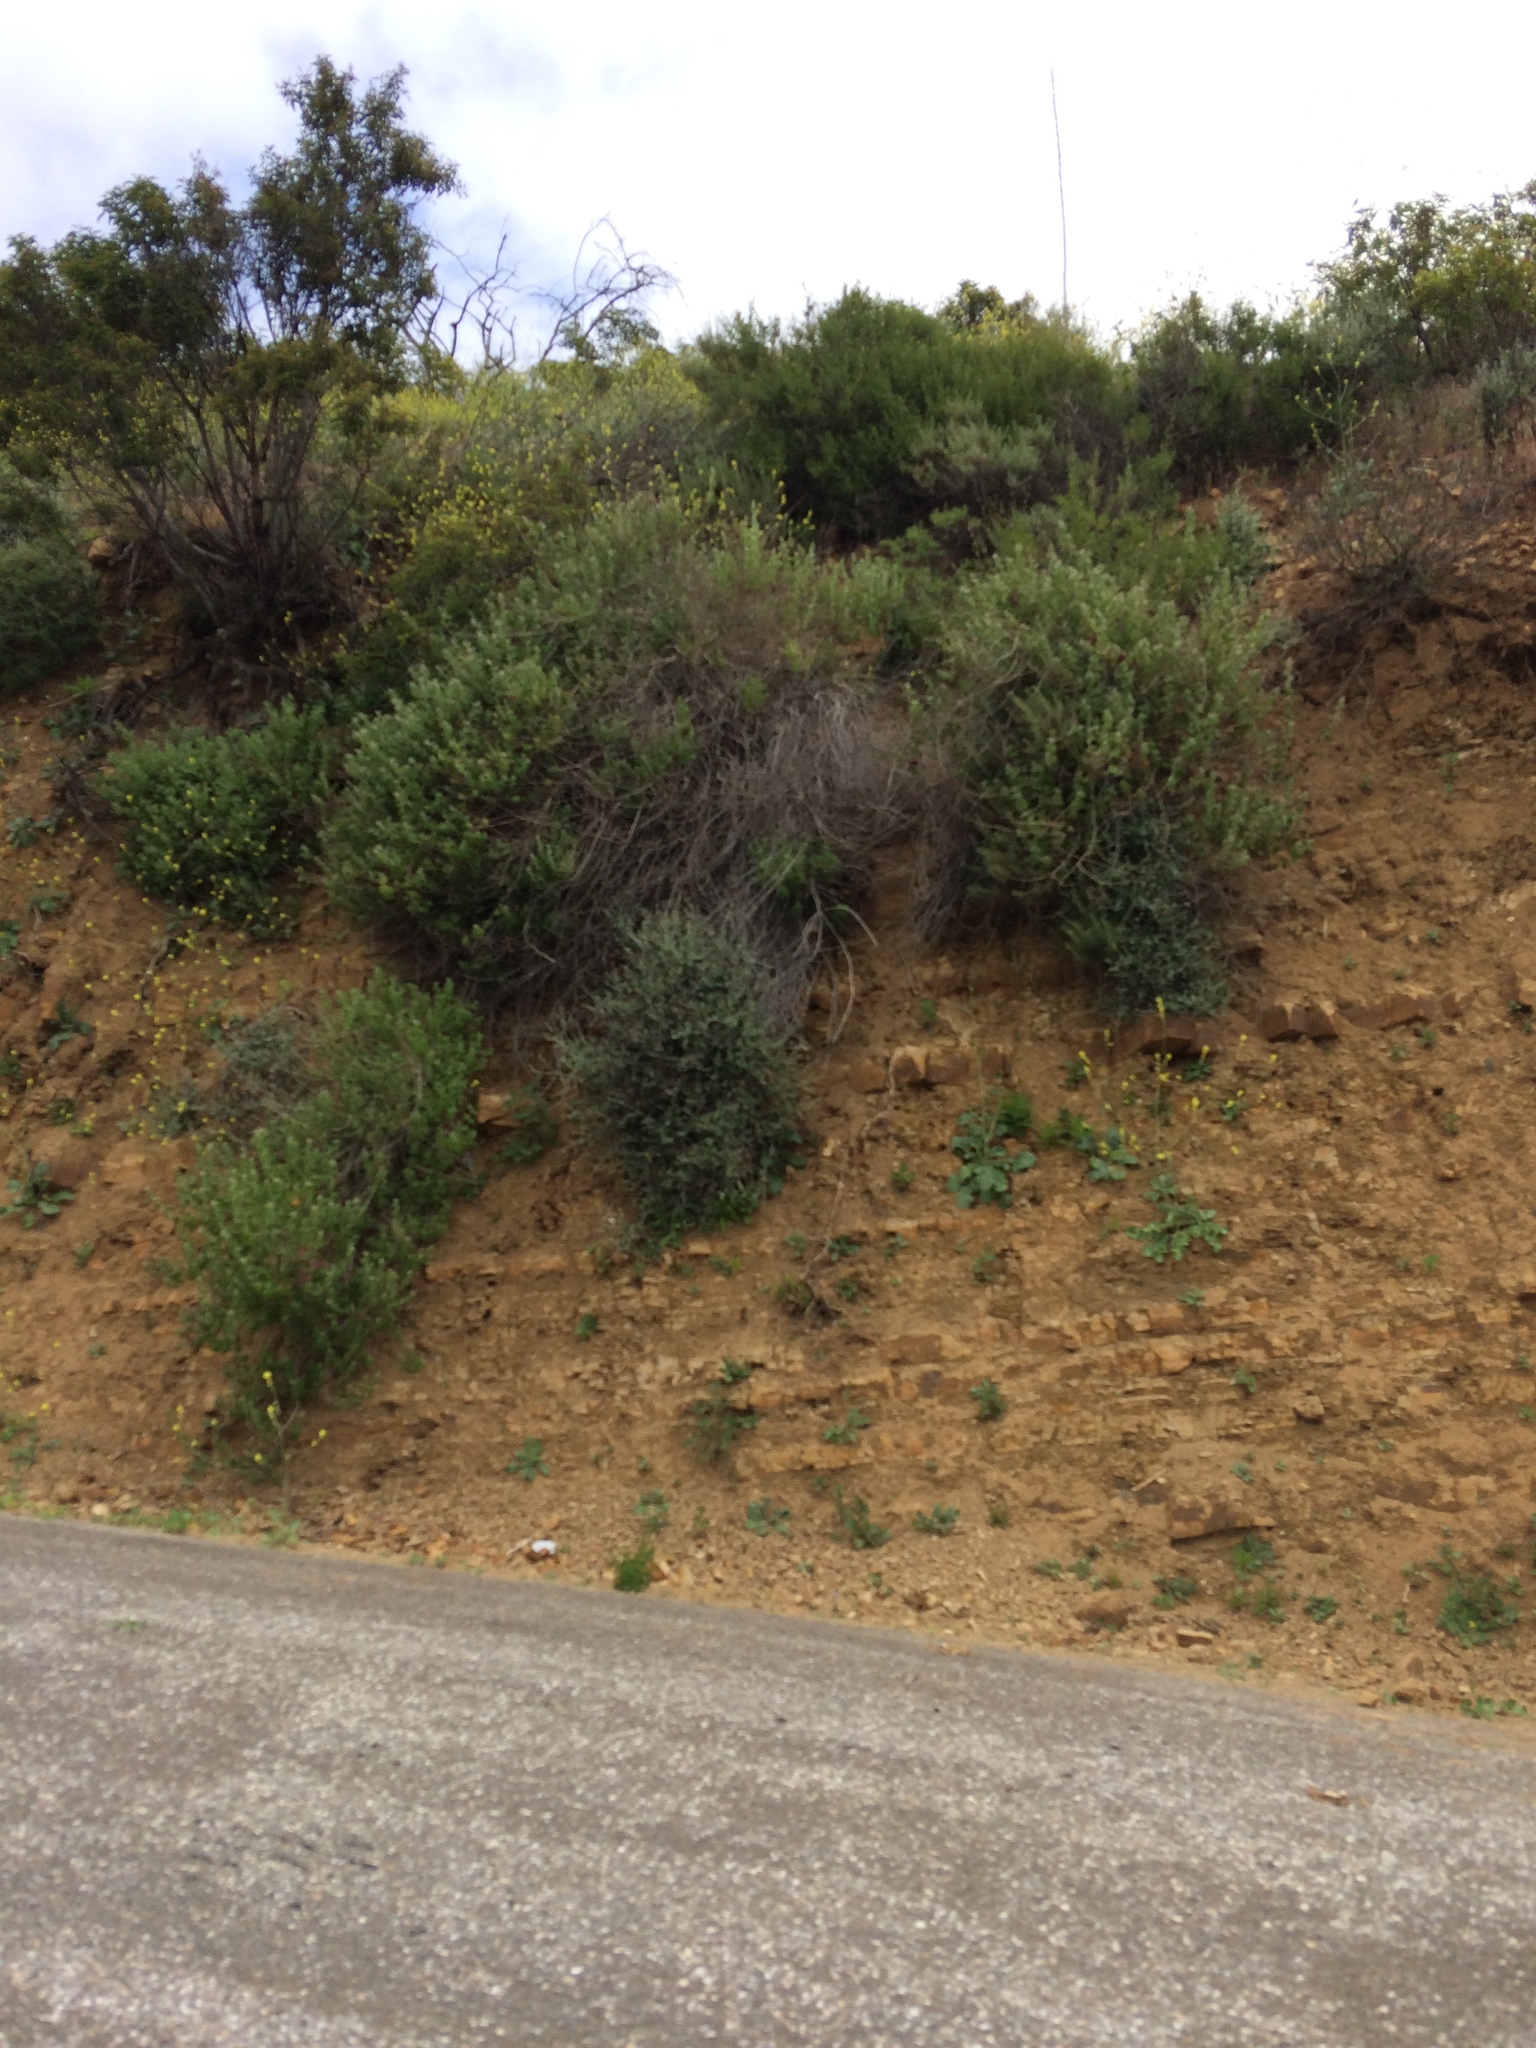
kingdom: Plantae
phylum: Tracheophyta
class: Magnoliopsida
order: Sapindales
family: Anacardiaceae
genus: Malosma
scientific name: Malosma laurina
